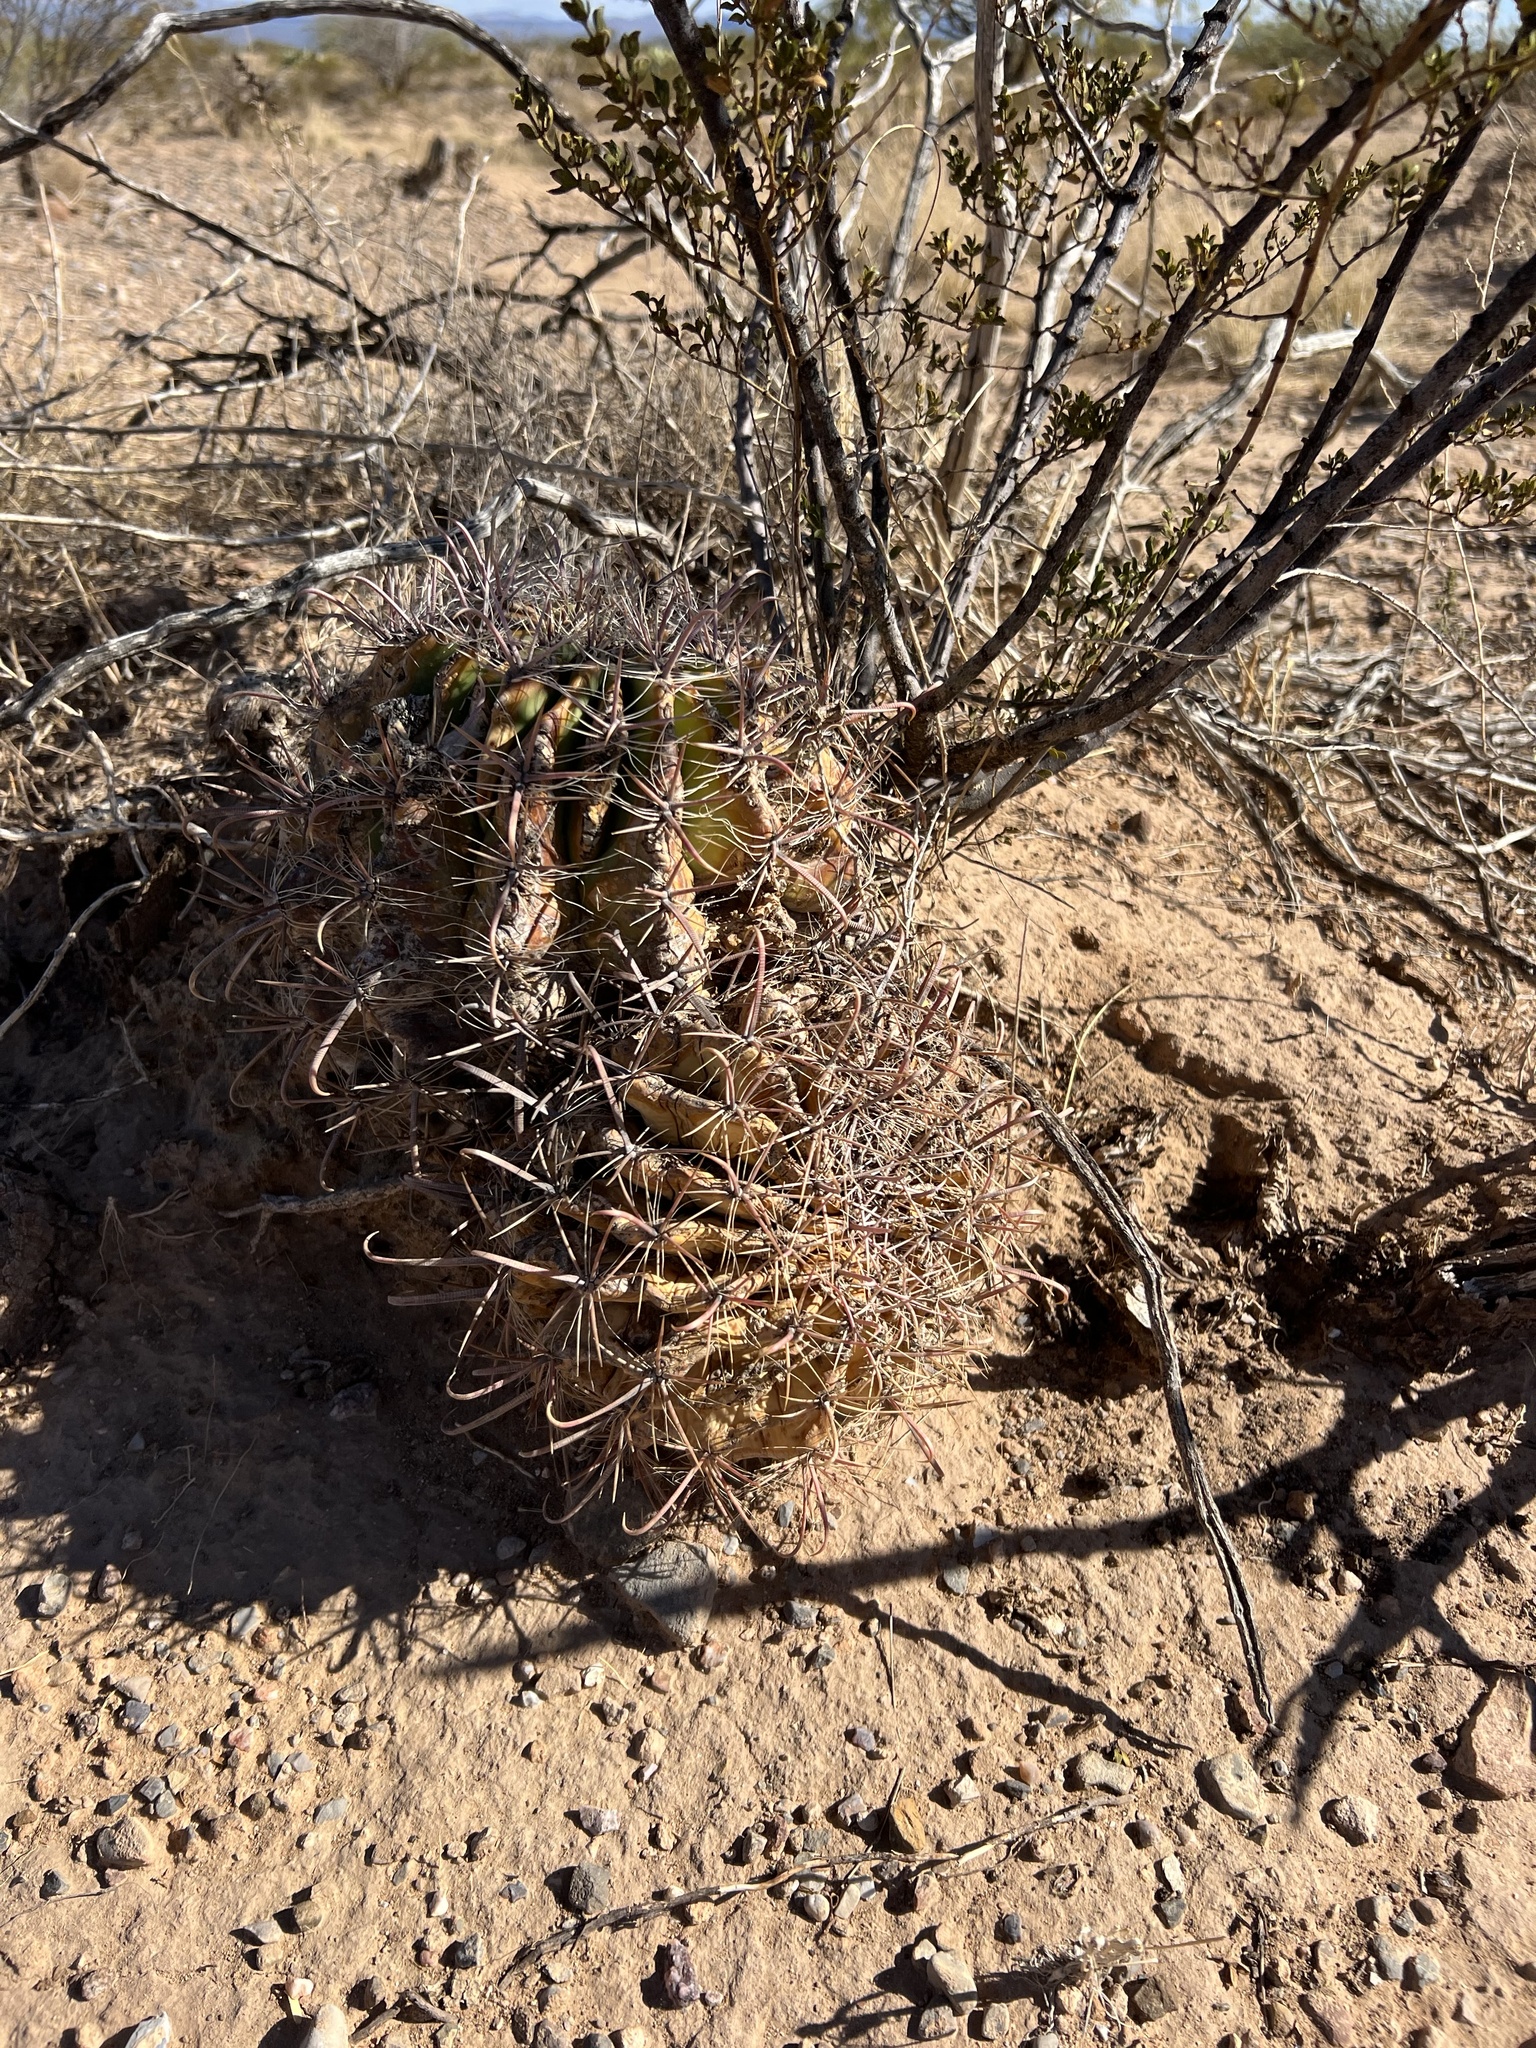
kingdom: Plantae
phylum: Tracheophyta
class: Magnoliopsida
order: Caryophyllales
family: Cactaceae
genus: Ferocactus
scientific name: Ferocactus wislizeni
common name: Candy barrel cactus
